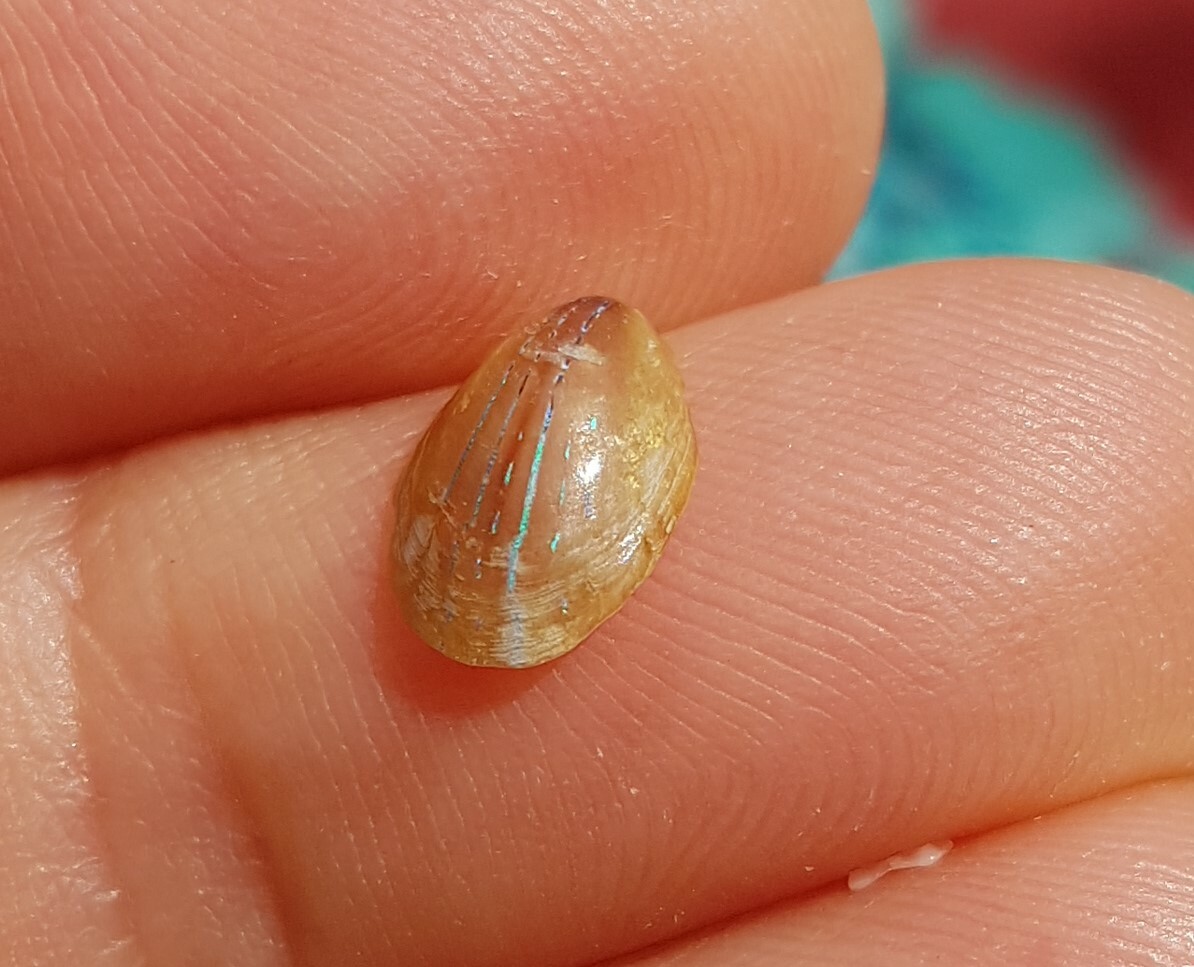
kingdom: Animalia
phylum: Mollusca
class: Gastropoda
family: Patellidae
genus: Patella
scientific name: Patella pellucida
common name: Blue-rayed limpet
